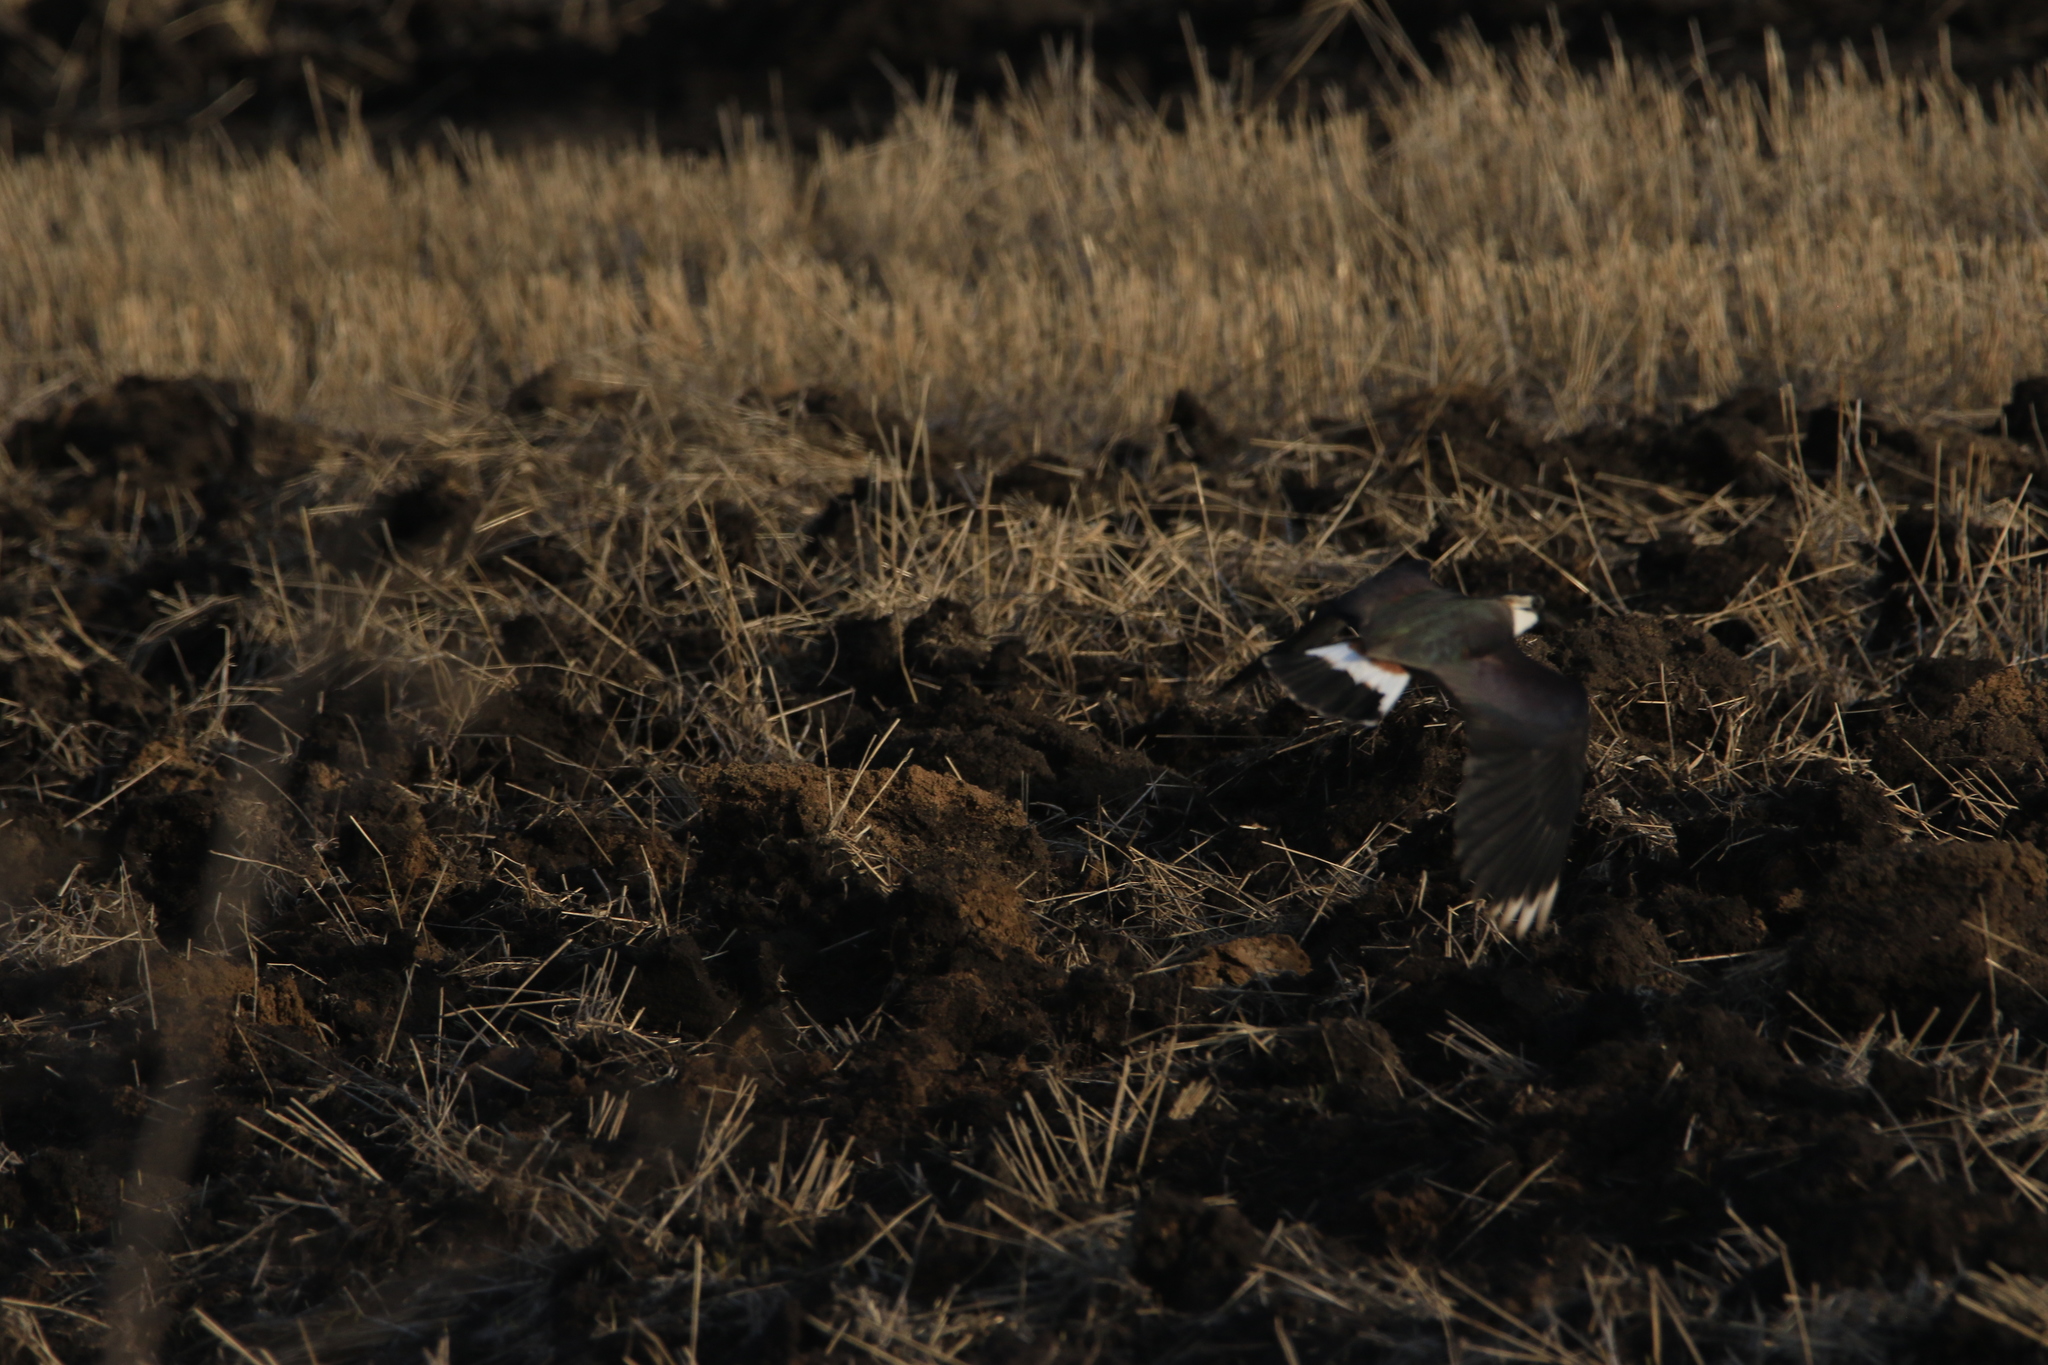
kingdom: Animalia
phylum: Chordata
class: Aves
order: Charadriiformes
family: Charadriidae
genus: Vanellus
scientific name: Vanellus vanellus
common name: Northern lapwing
